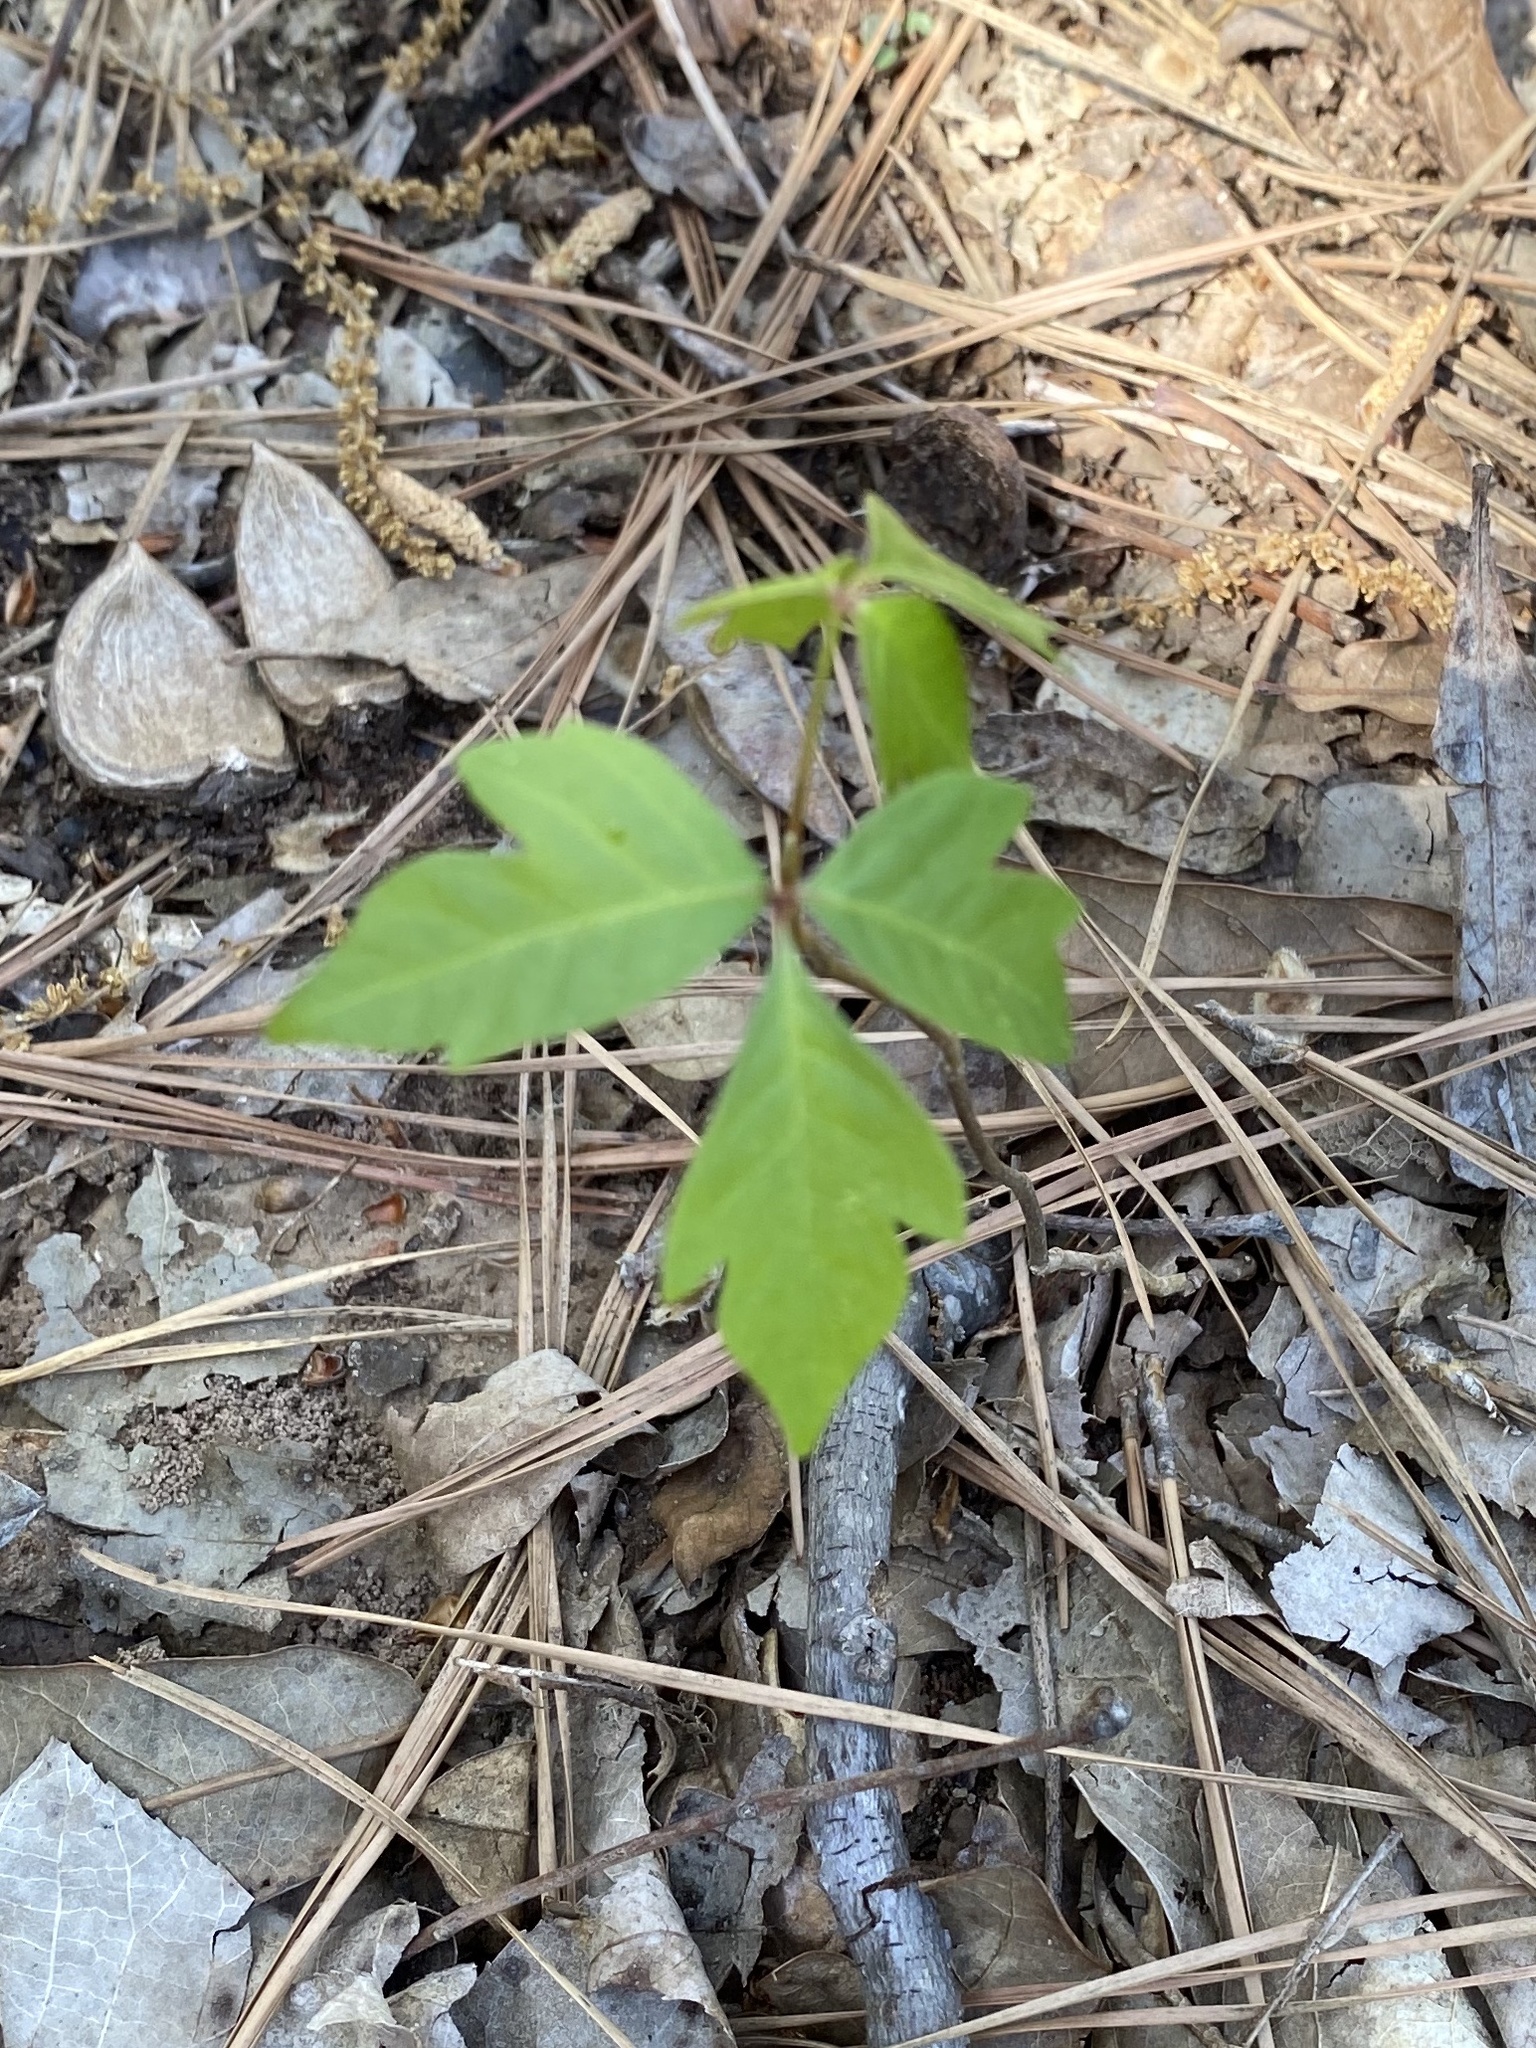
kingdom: Plantae
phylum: Tracheophyta
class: Magnoliopsida
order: Sapindales
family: Anacardiaceae
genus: Toxicodendron
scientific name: Toxicodendron radicans
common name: Poison ivy
